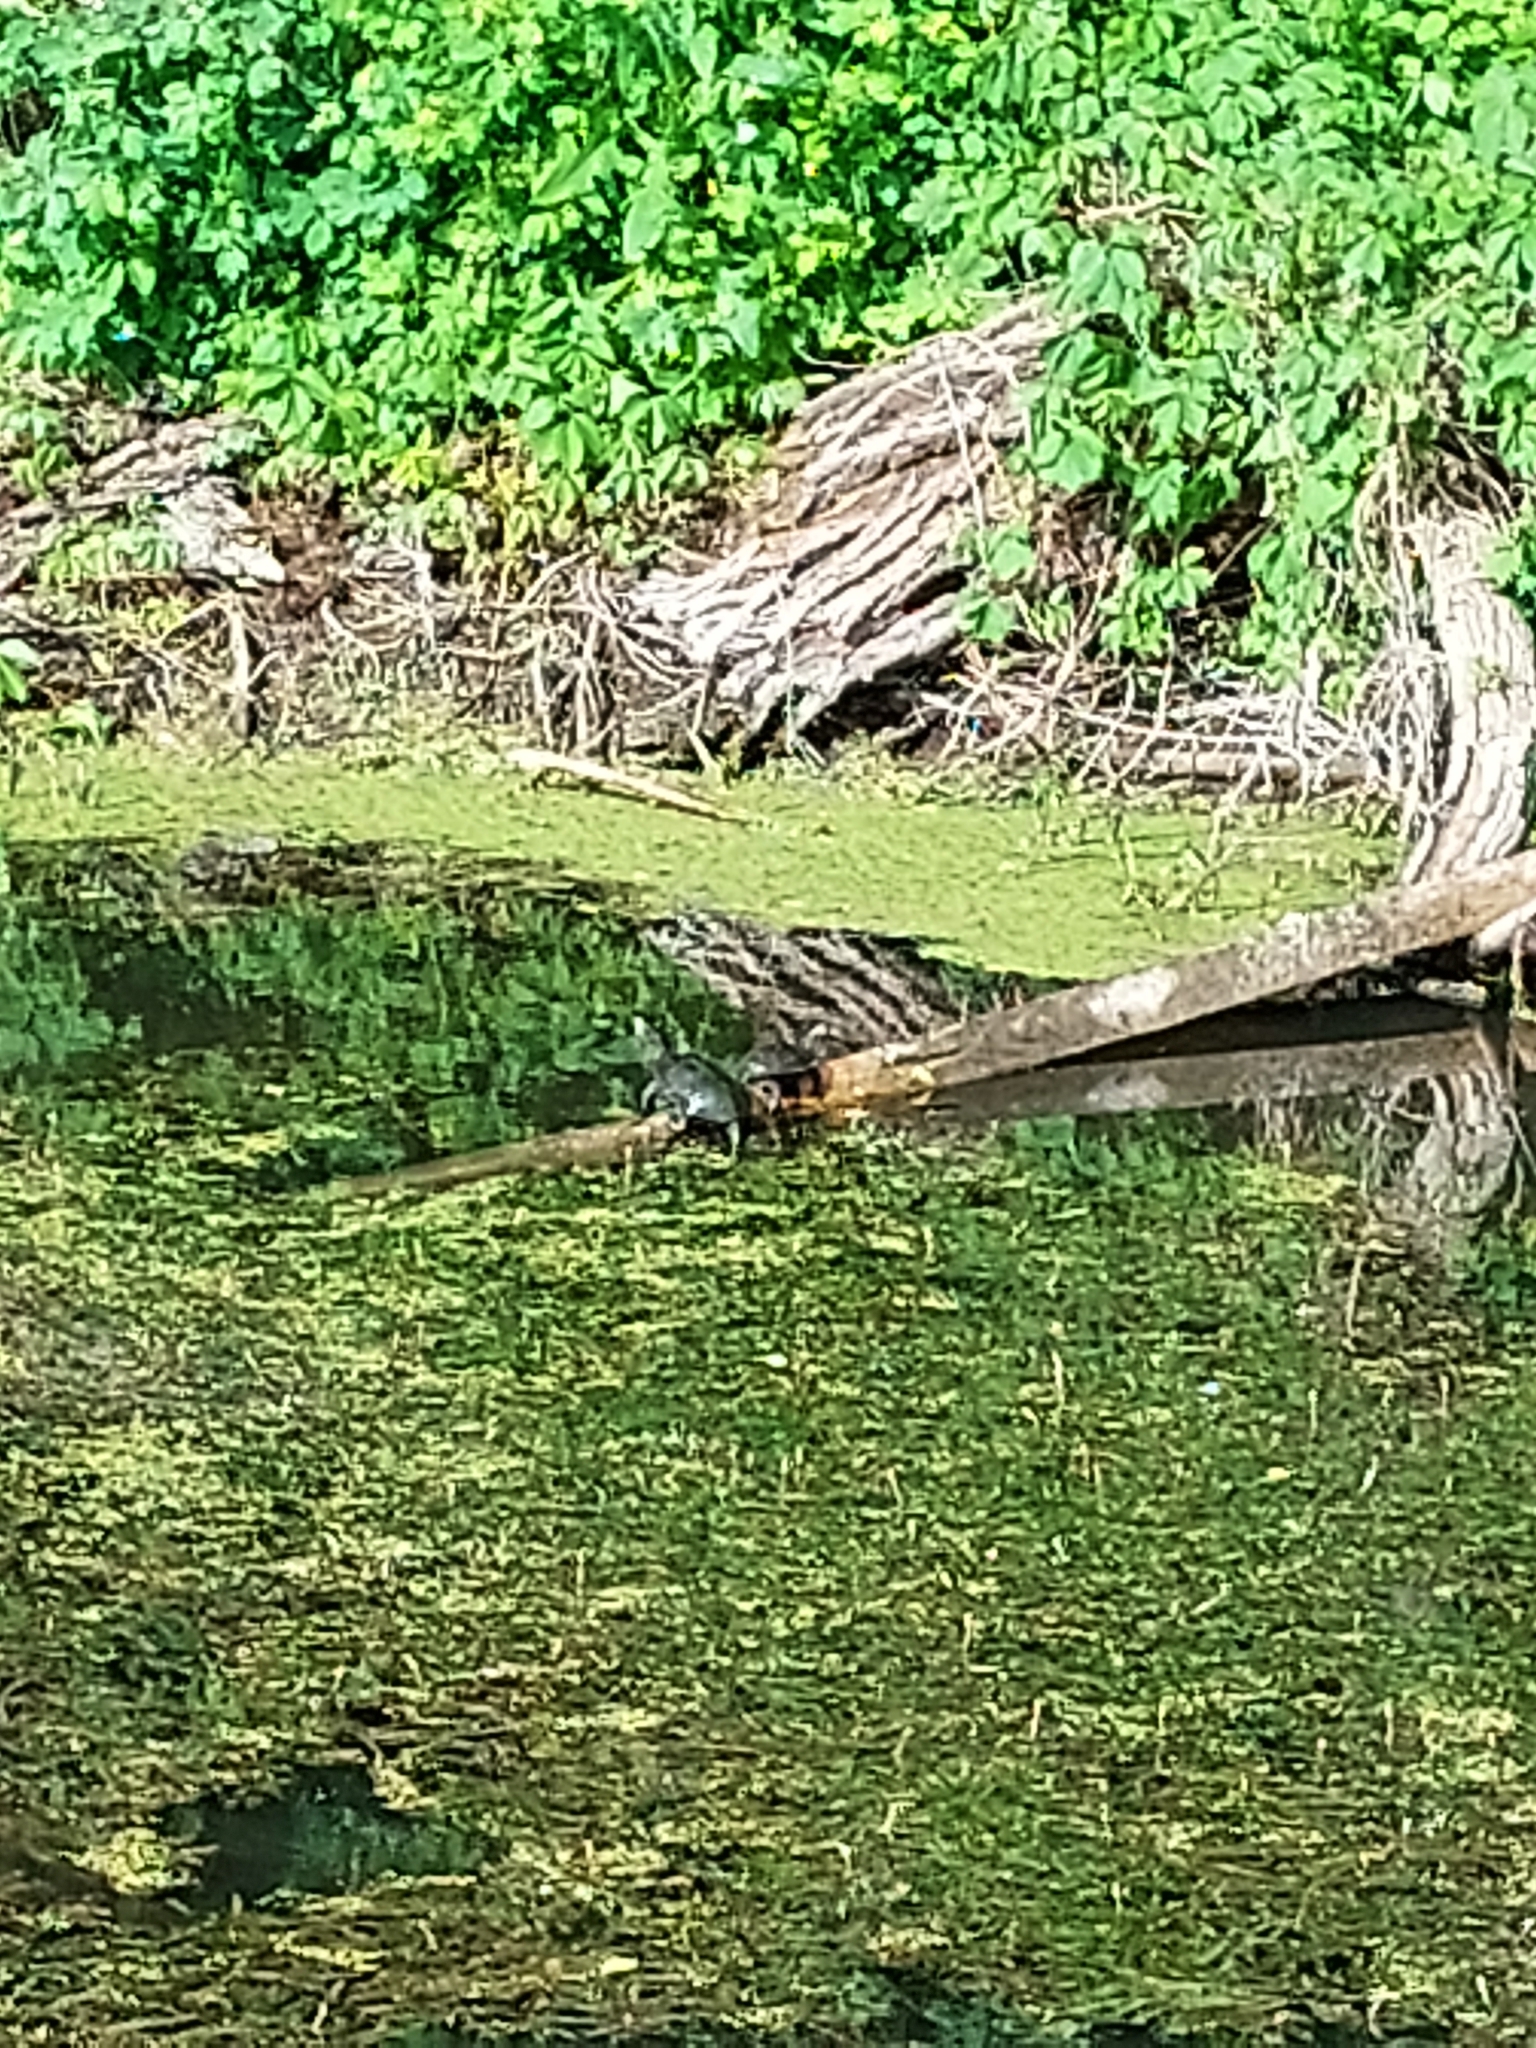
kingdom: Animalia
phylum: Chordata
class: Testudines
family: Emydidae
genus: Emys
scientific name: Emys orbicularis
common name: European pond turtle
